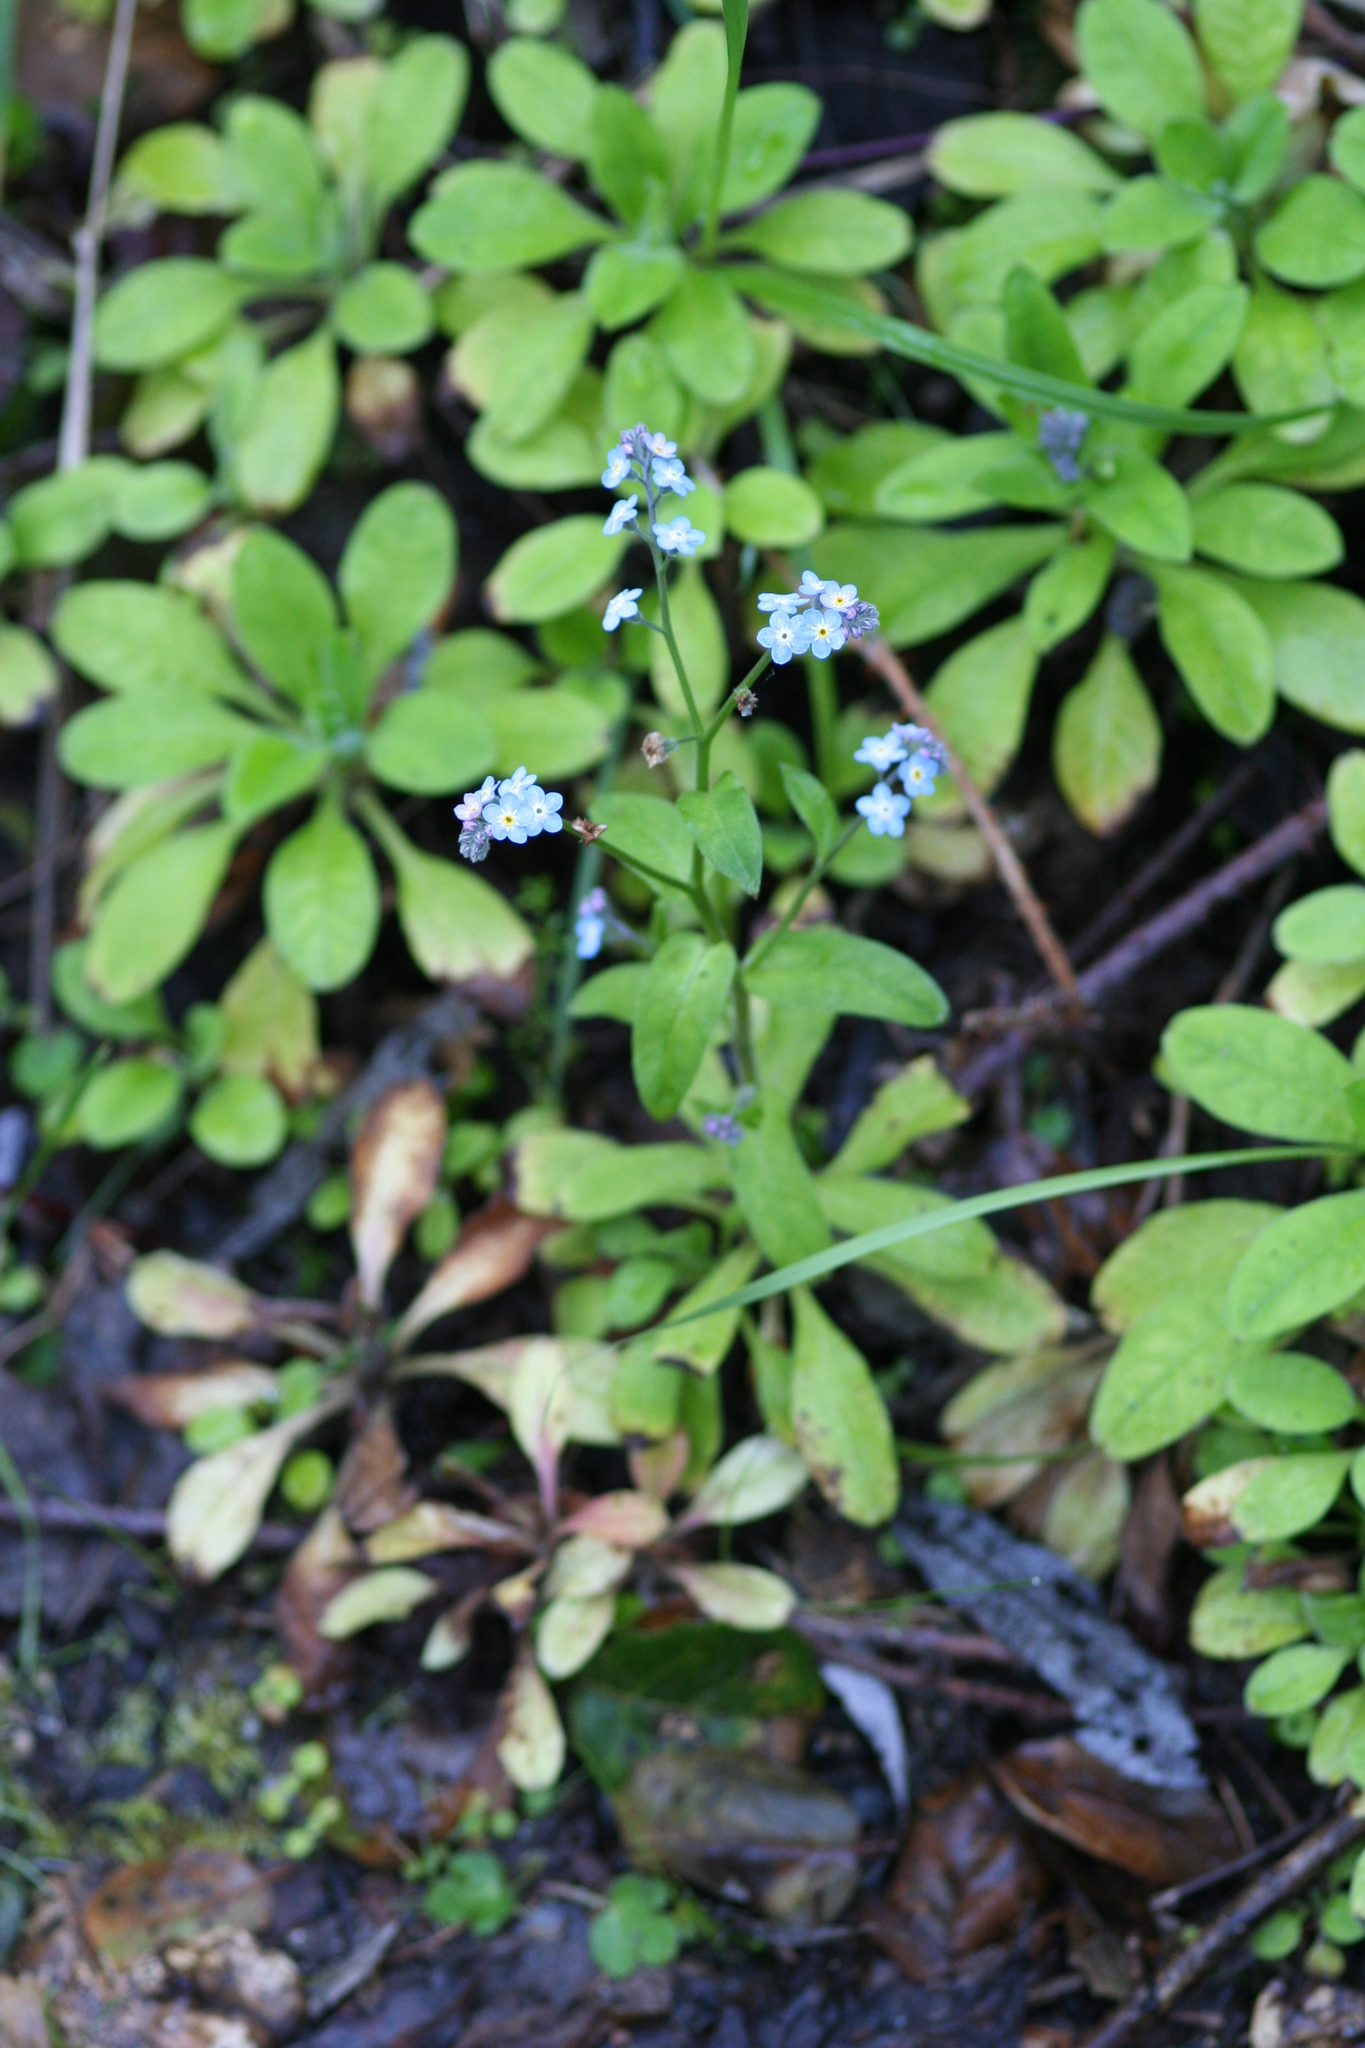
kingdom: Plantae
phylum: Tracheophyta
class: Magnoliopsida
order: Boraginales
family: Boraginaceae
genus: Myosotis
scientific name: Myosotis latifolia
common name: Broadleaf forget-me-not
